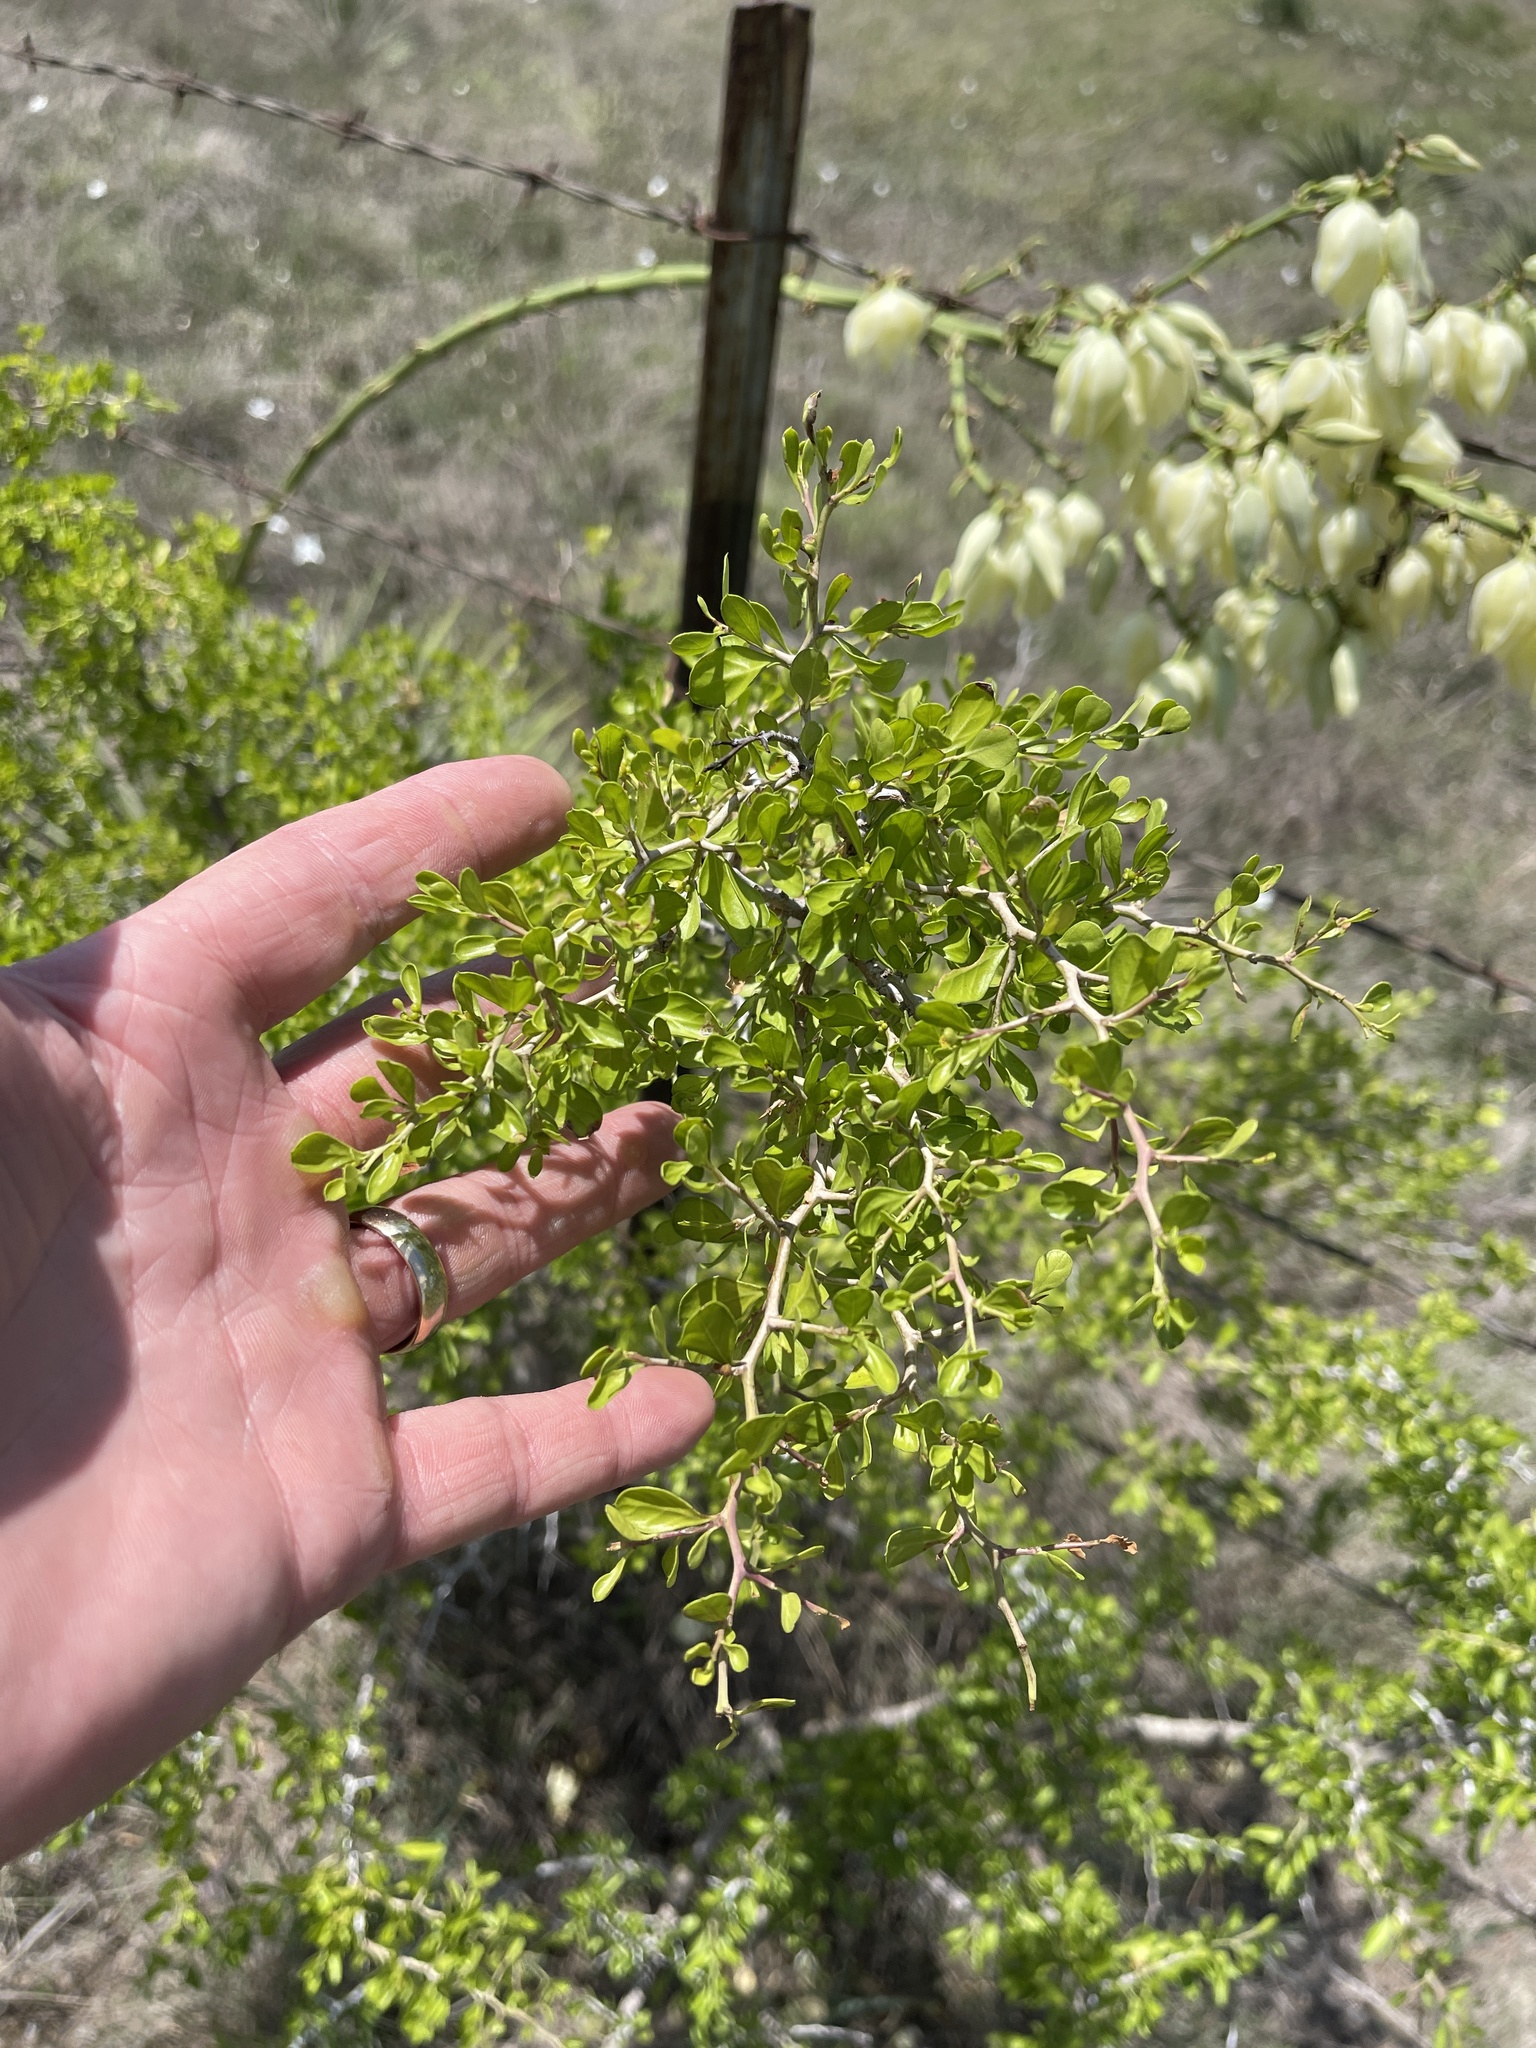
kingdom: Plantae
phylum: Tracheophyta
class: Magnoliopsida
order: Rosales
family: Rhamnaceae
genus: Condalia
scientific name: Condalia hookeri
